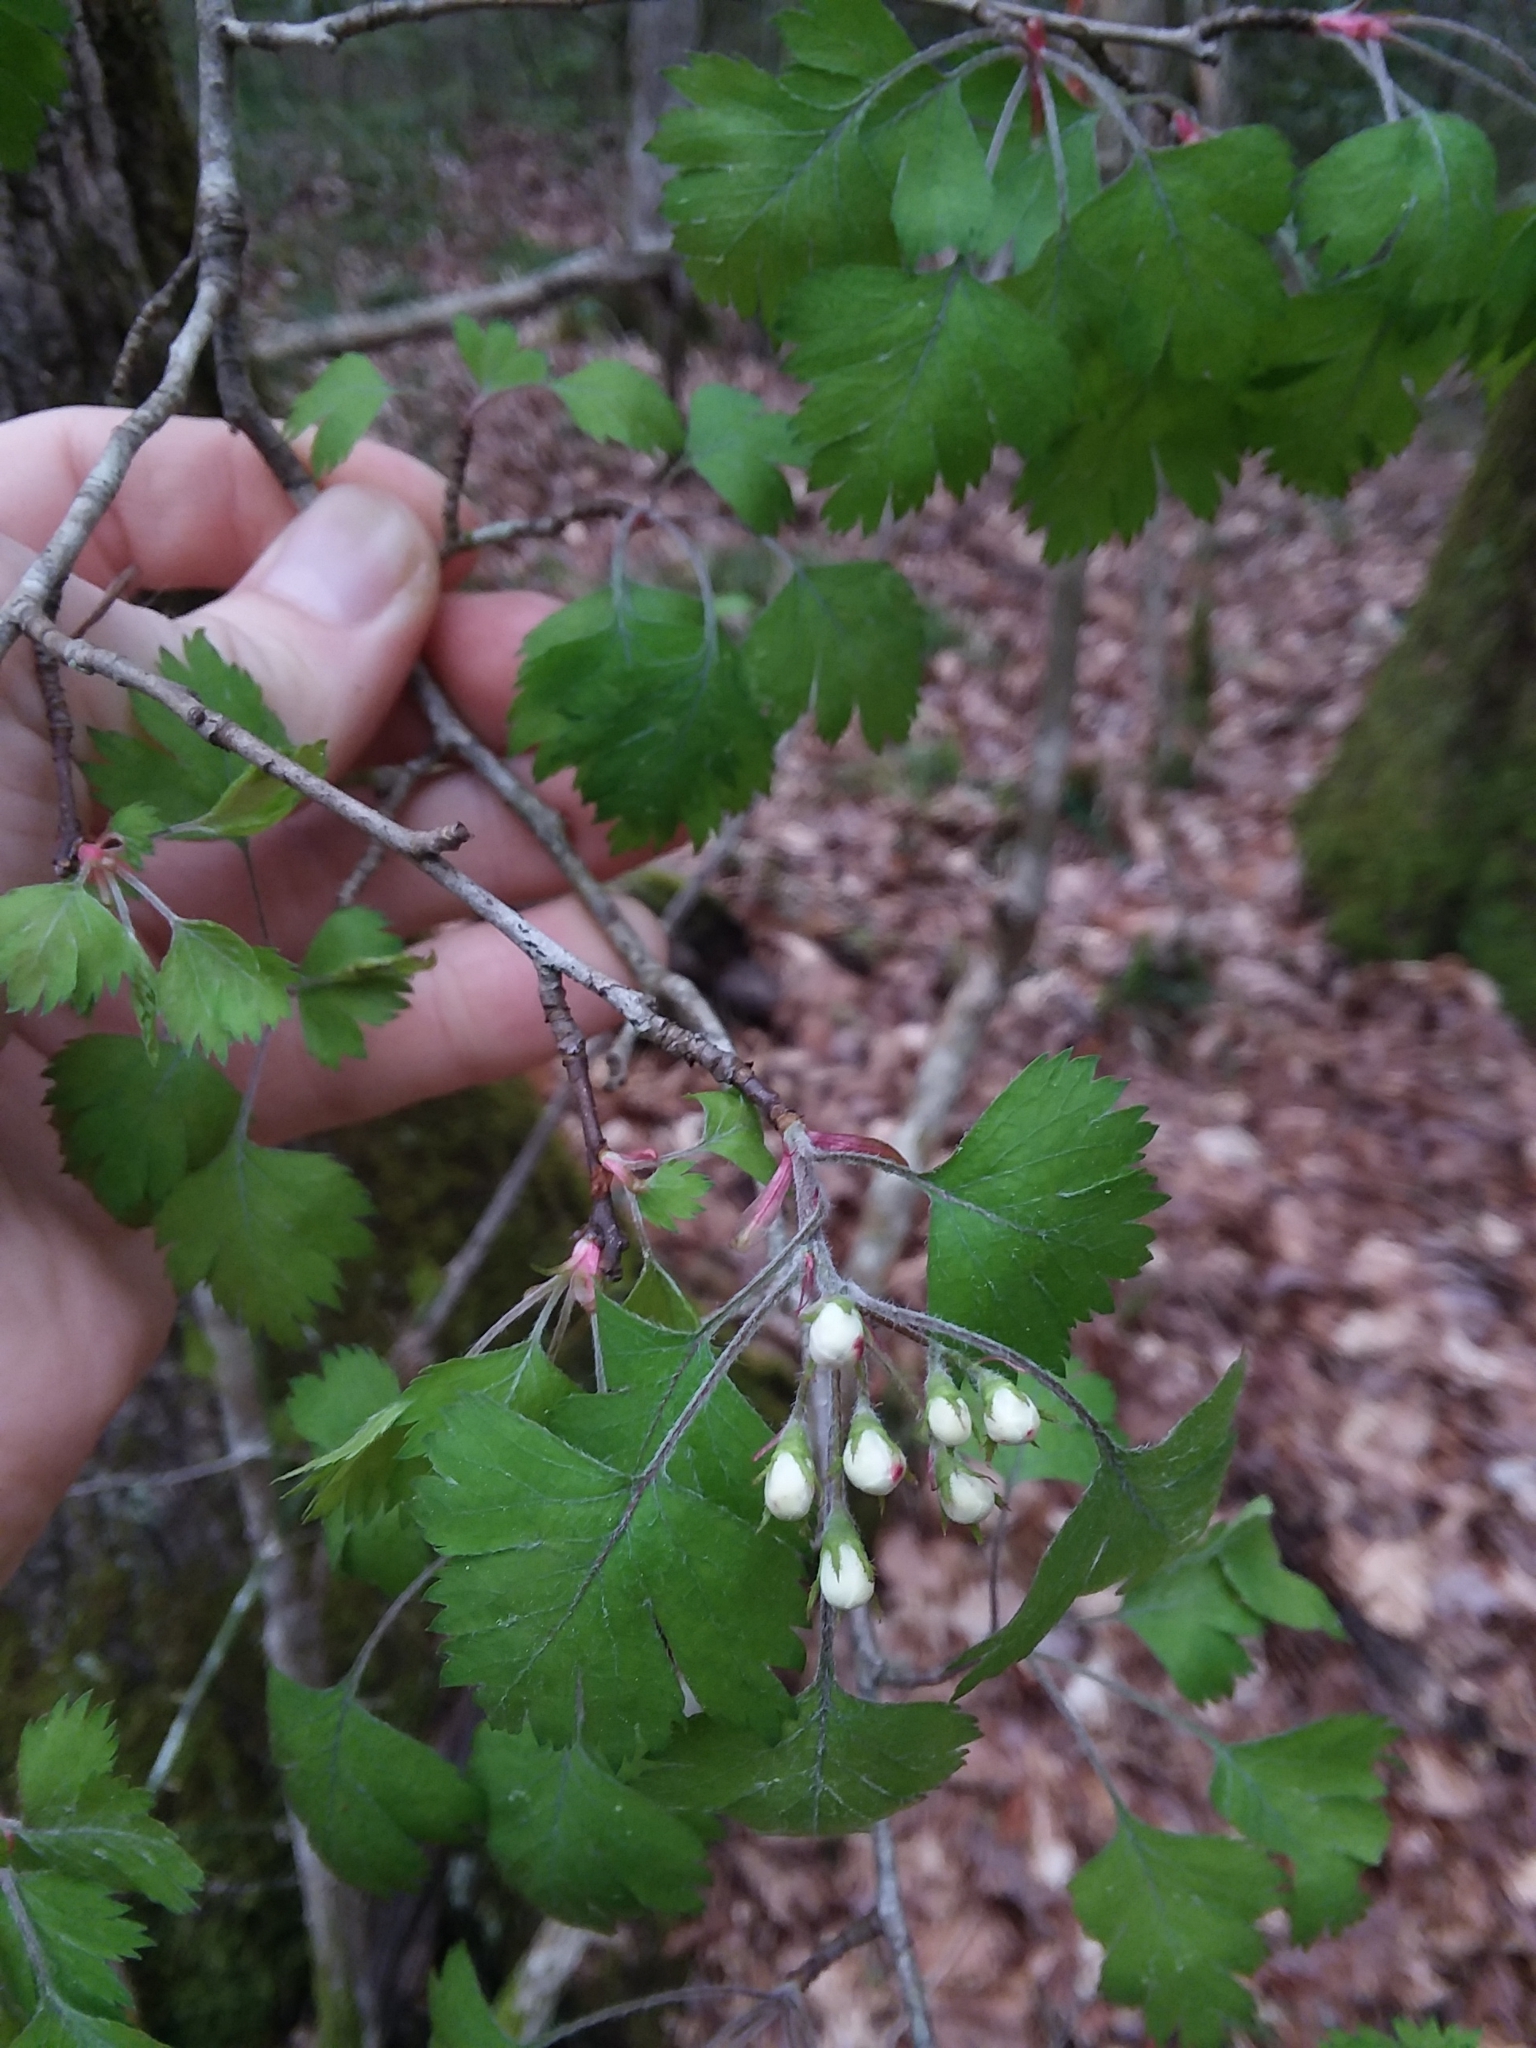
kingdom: Plantae
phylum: Tracheophyta
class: Magnoliopsida
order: Rosales
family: Rosaceae
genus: Crataegus
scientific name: Crataegus marshallii
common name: Parsley-hawthorn
